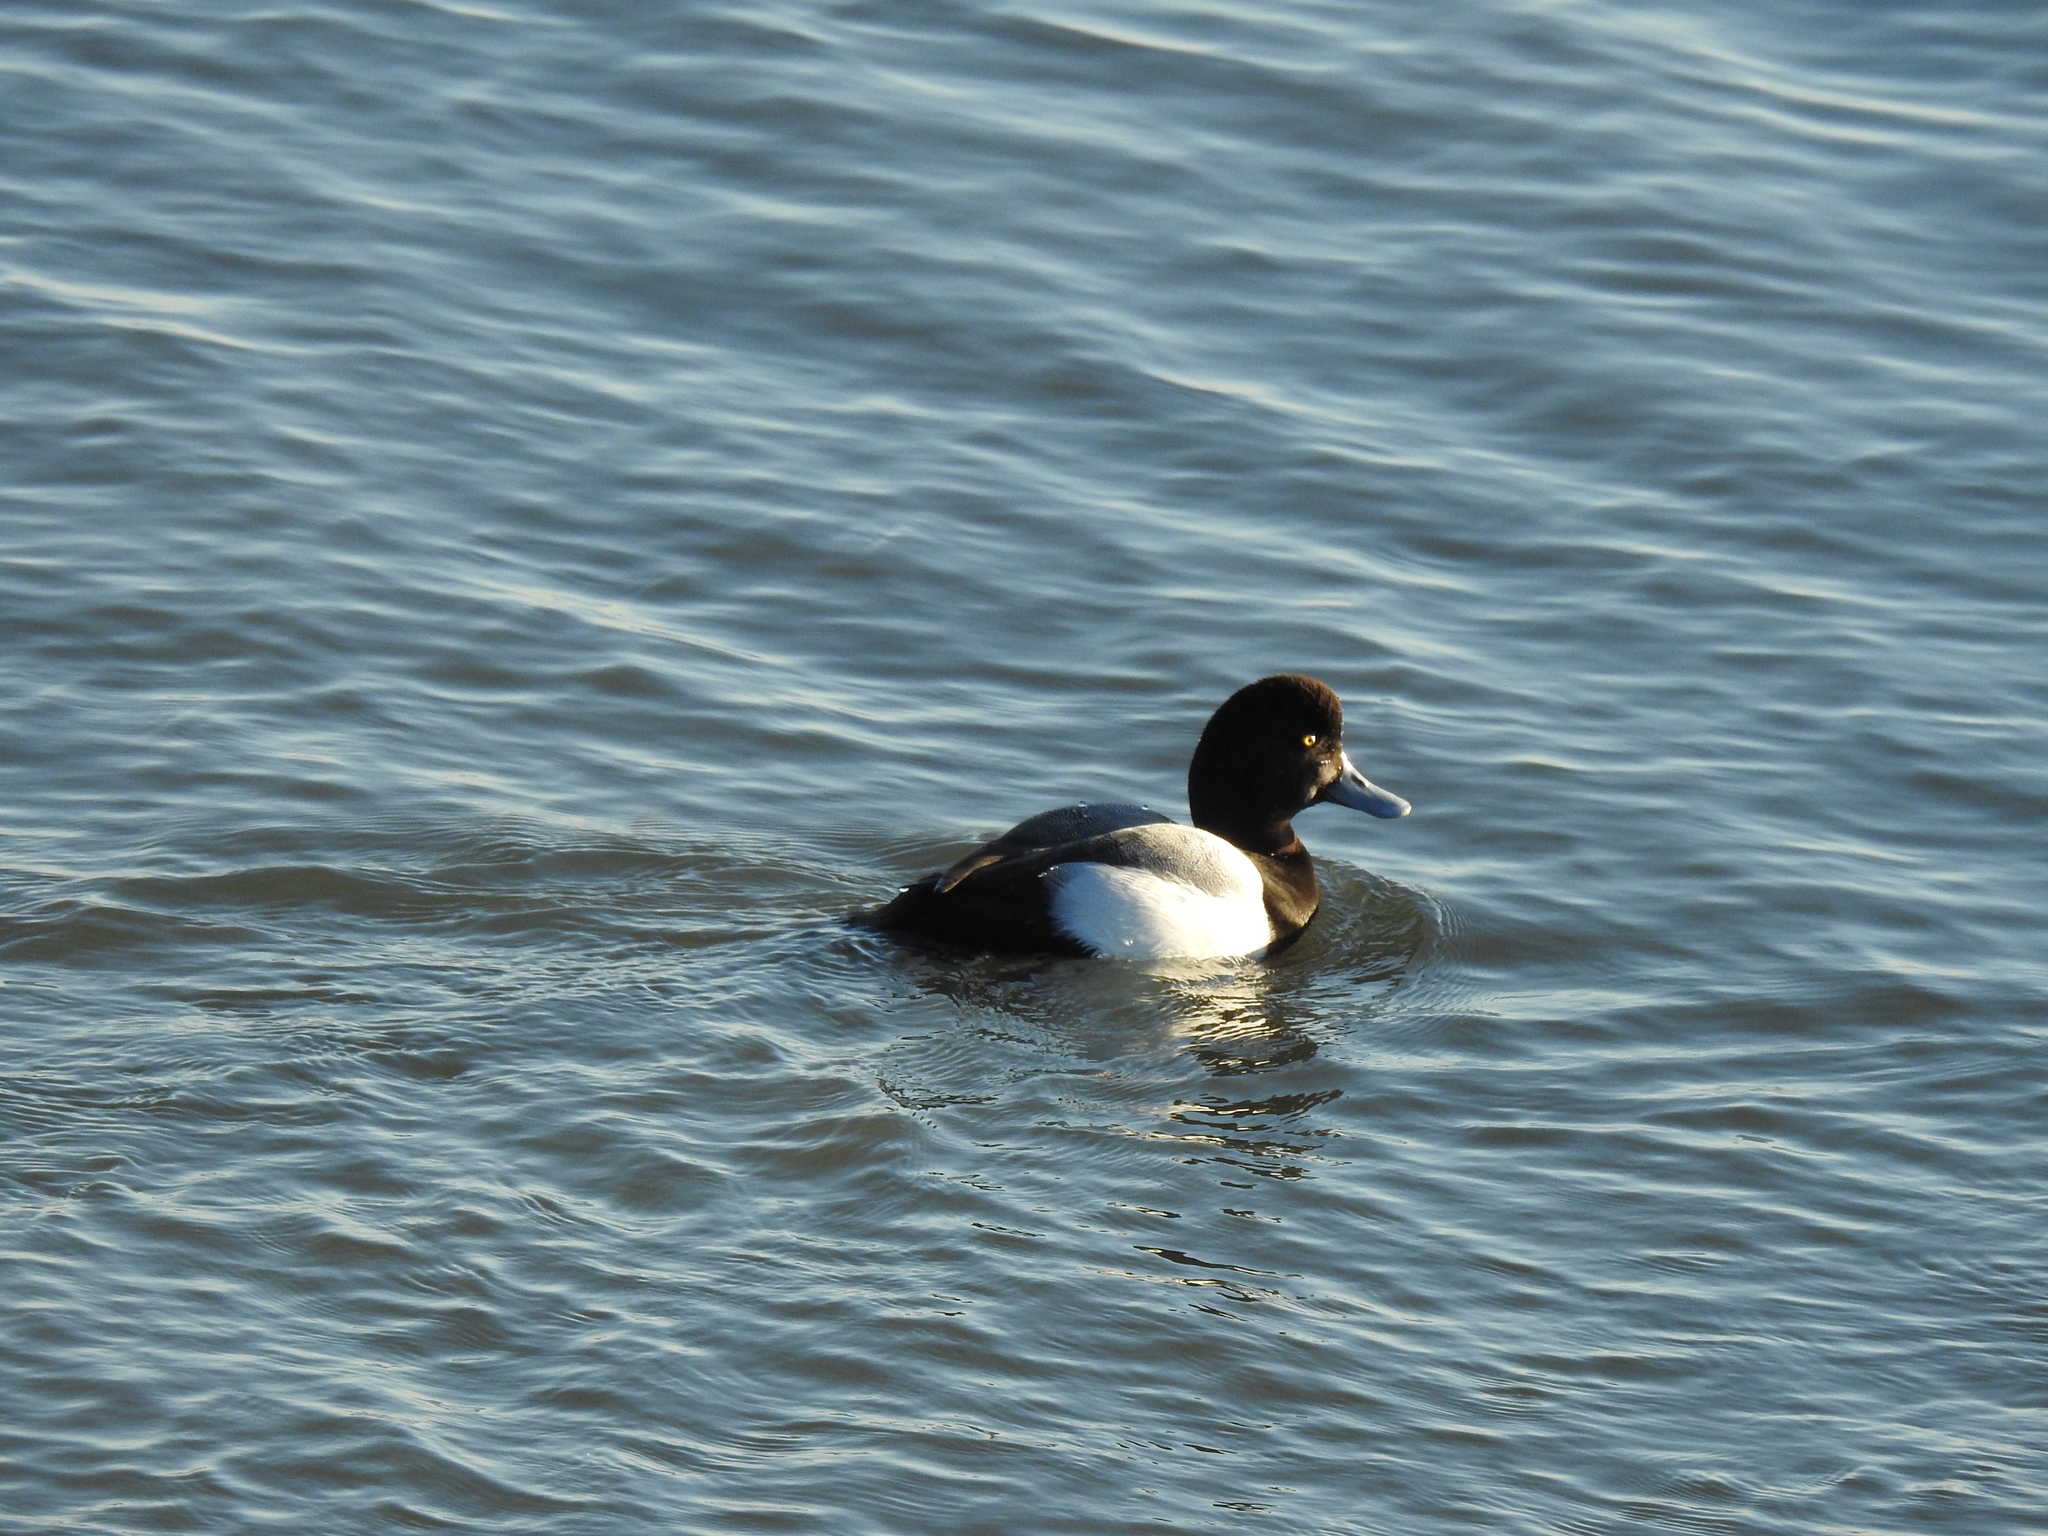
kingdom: Animalia
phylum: Chordata
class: Aves
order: Anseriformes
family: Anatidae
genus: Aythya
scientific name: Aythya marila
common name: Greater scaup
